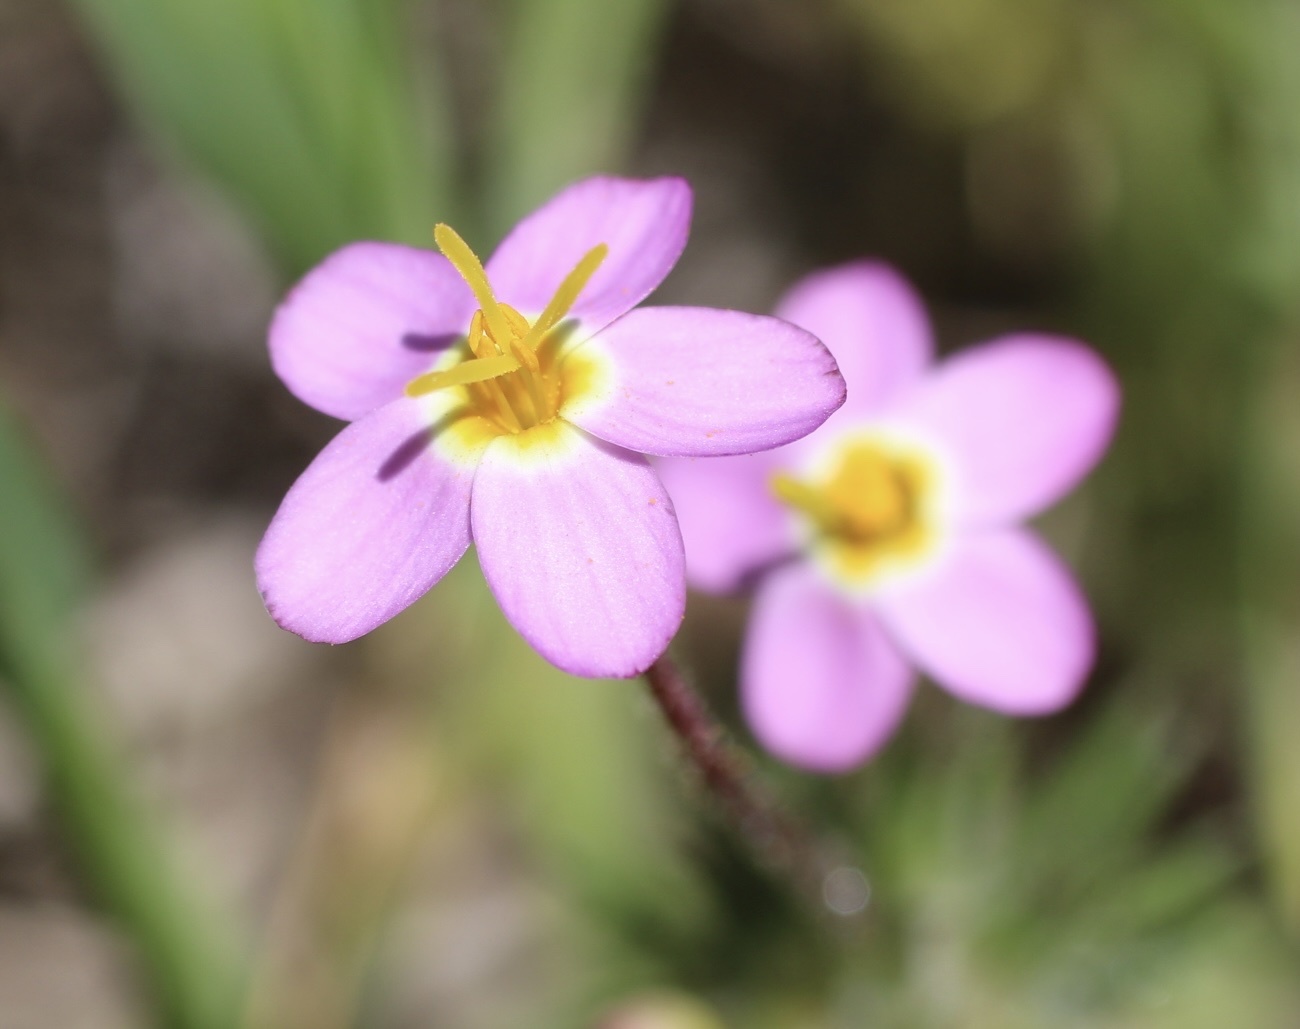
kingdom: Plantae
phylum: Tracheophyta
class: Magnoliopsida
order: Ericales
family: Polemoniaceae
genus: Leptosiphon
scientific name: Leptosiphon parviflorus
